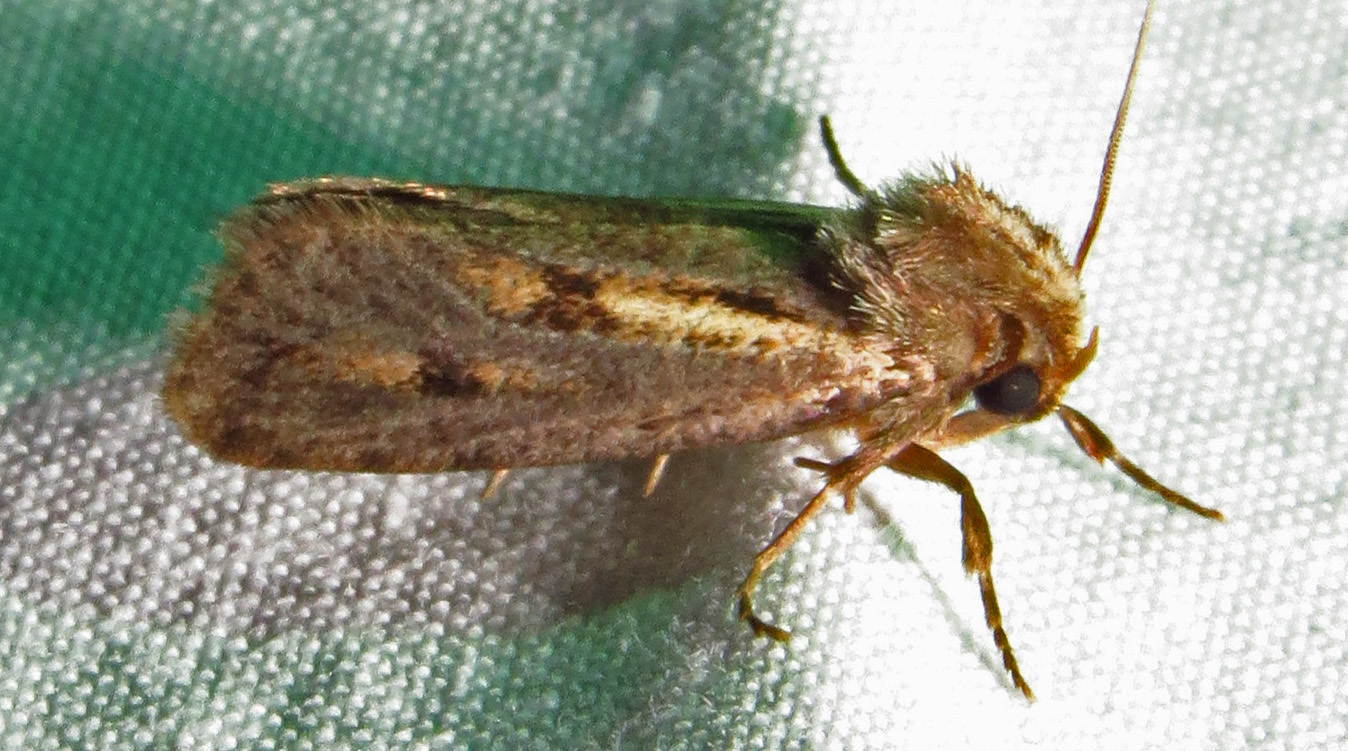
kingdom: Animalia
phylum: Arthropoda
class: Insecta
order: Lepidoptera
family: Tineidae
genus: Acrolophus
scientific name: Acrolophus popeanella
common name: Clemens' grass tubeworm moth
